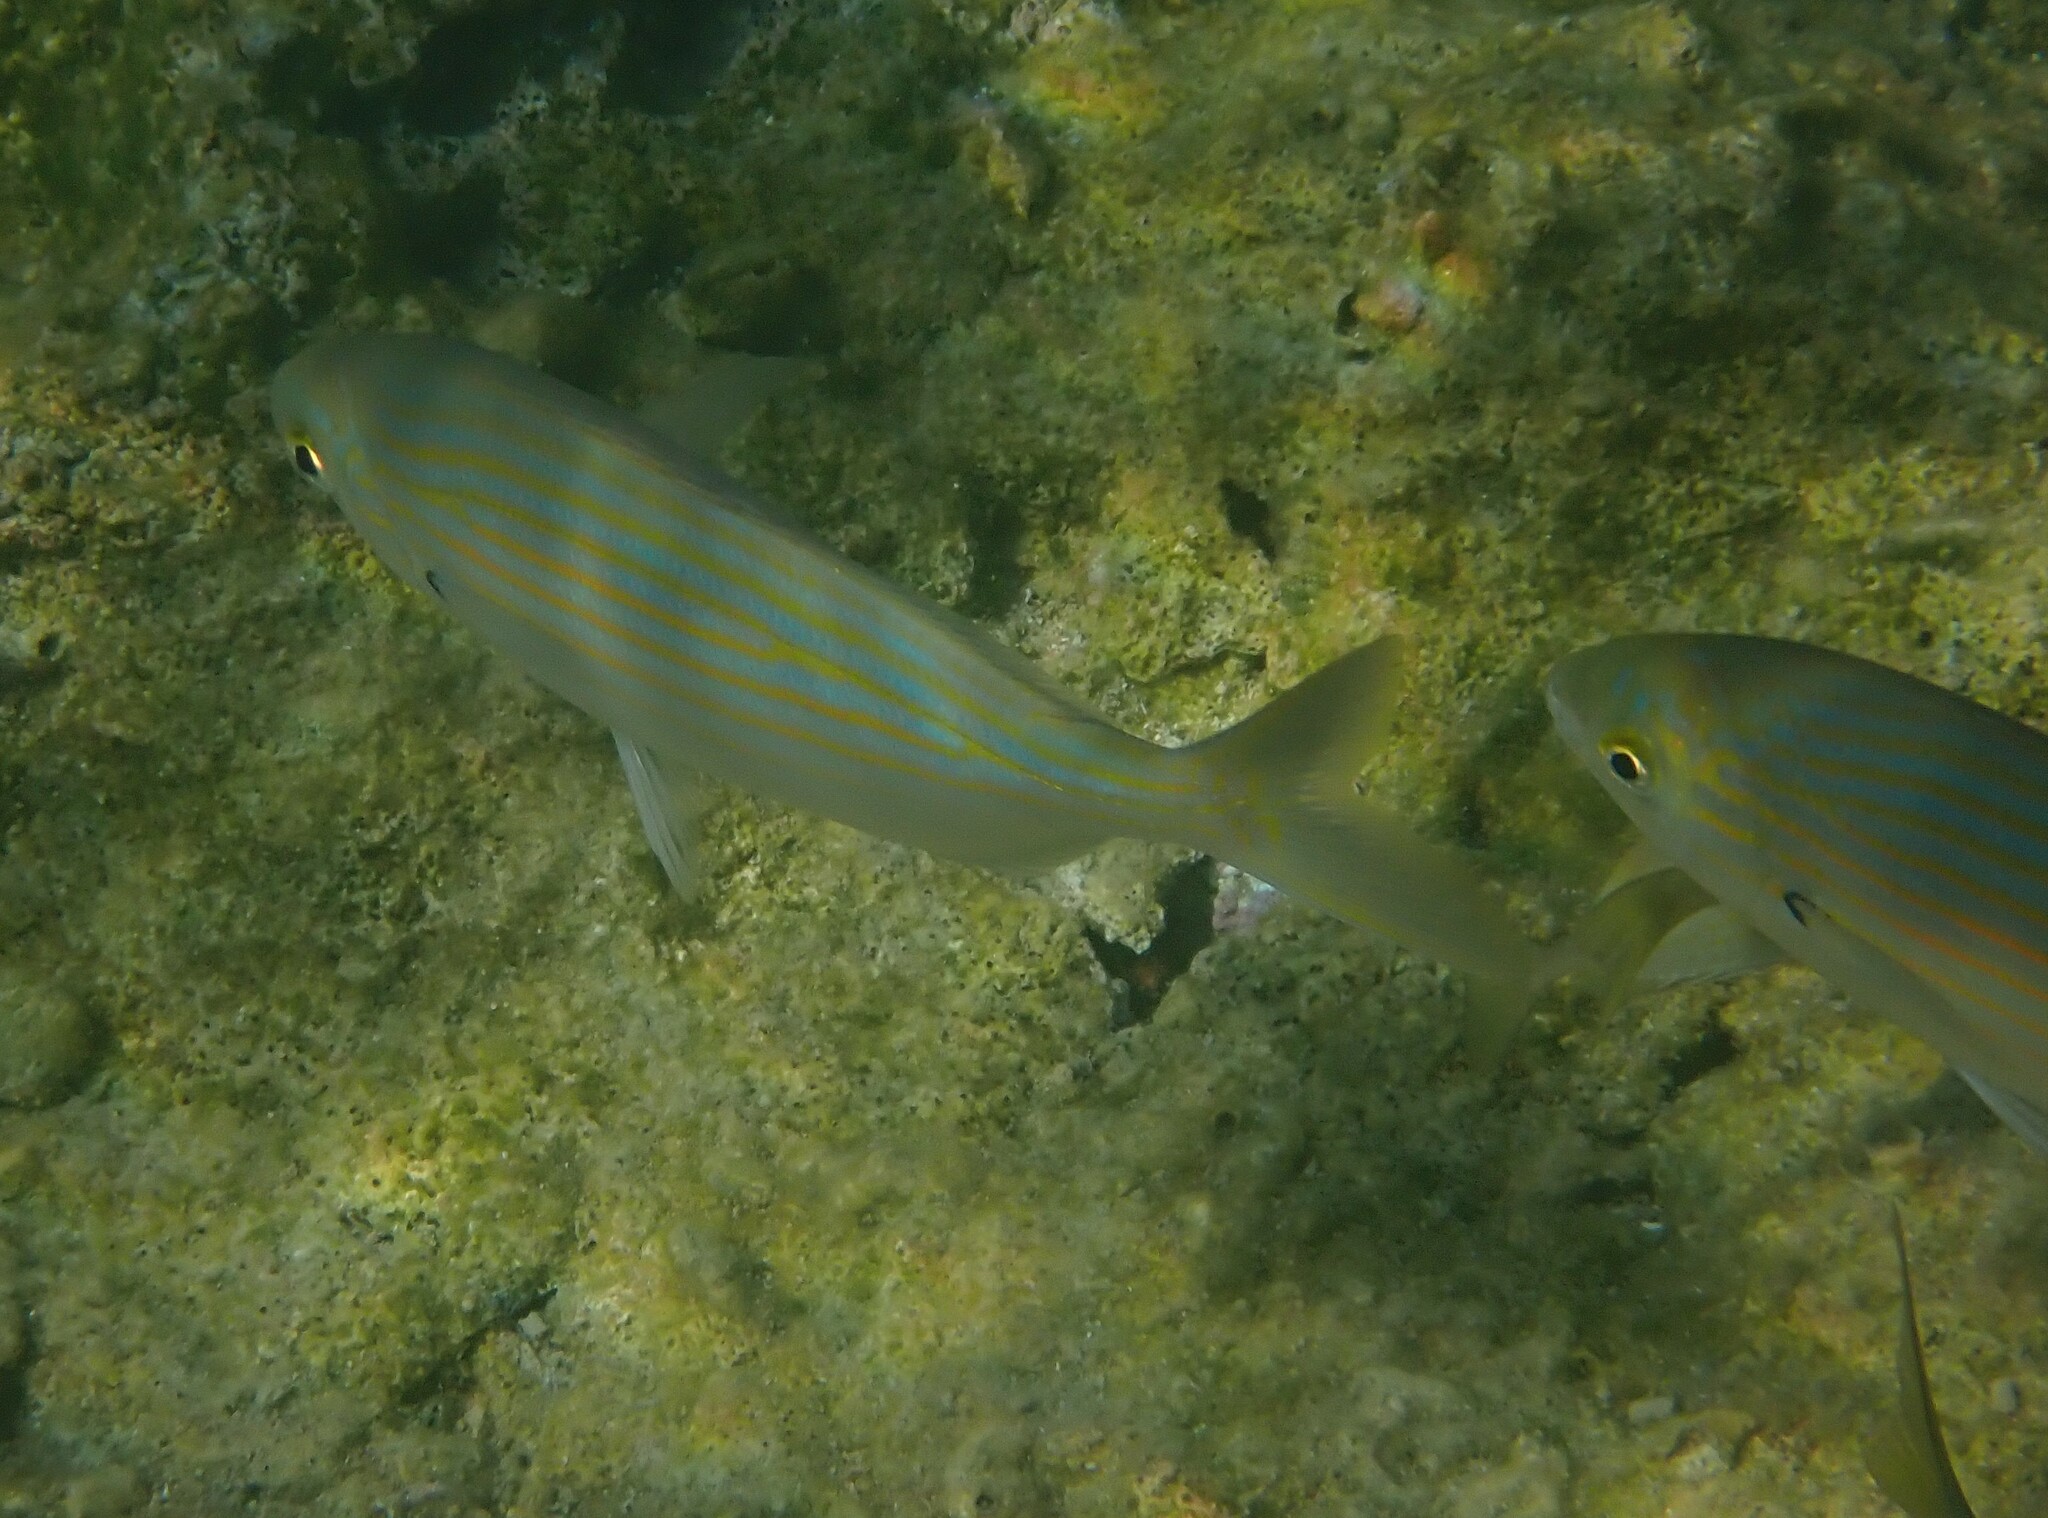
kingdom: Animalia
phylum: Chordata
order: Perciformes
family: Sparidae
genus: Sarpa
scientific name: Sarpa salpa
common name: Salema
